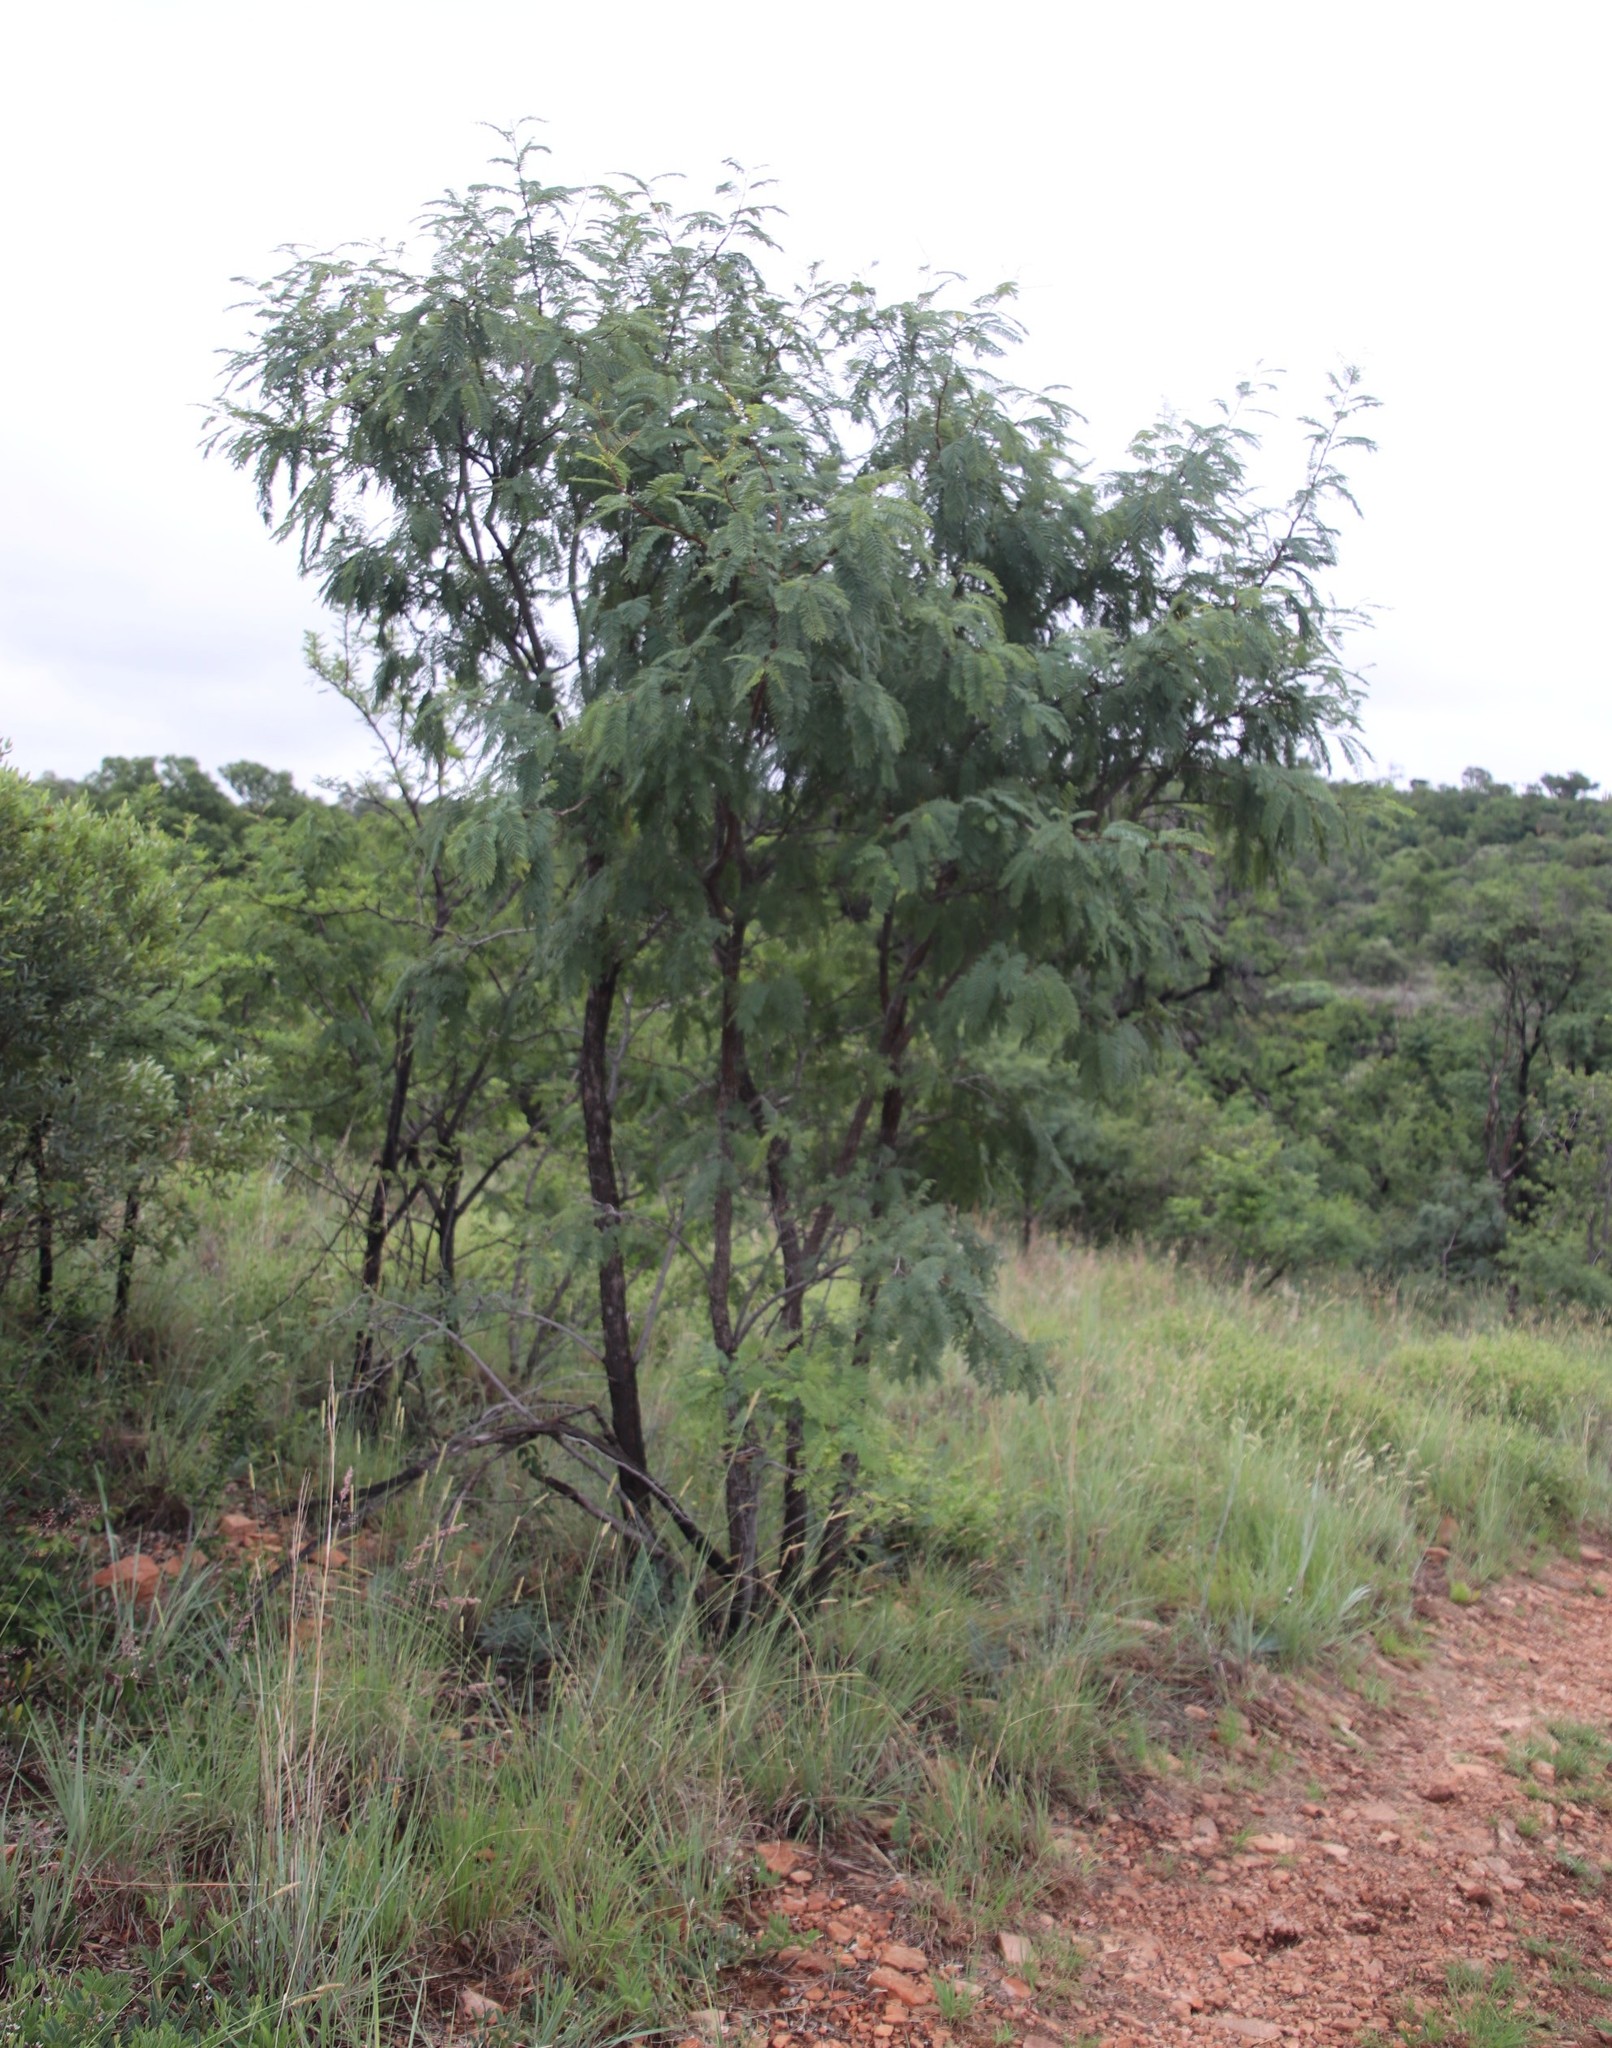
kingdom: Plantae
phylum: Tracheophyta
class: Magnoliopsida
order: Fabales
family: Fabaceae
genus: Senegalia
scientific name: Senegalia caffra
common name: Cat thorn
